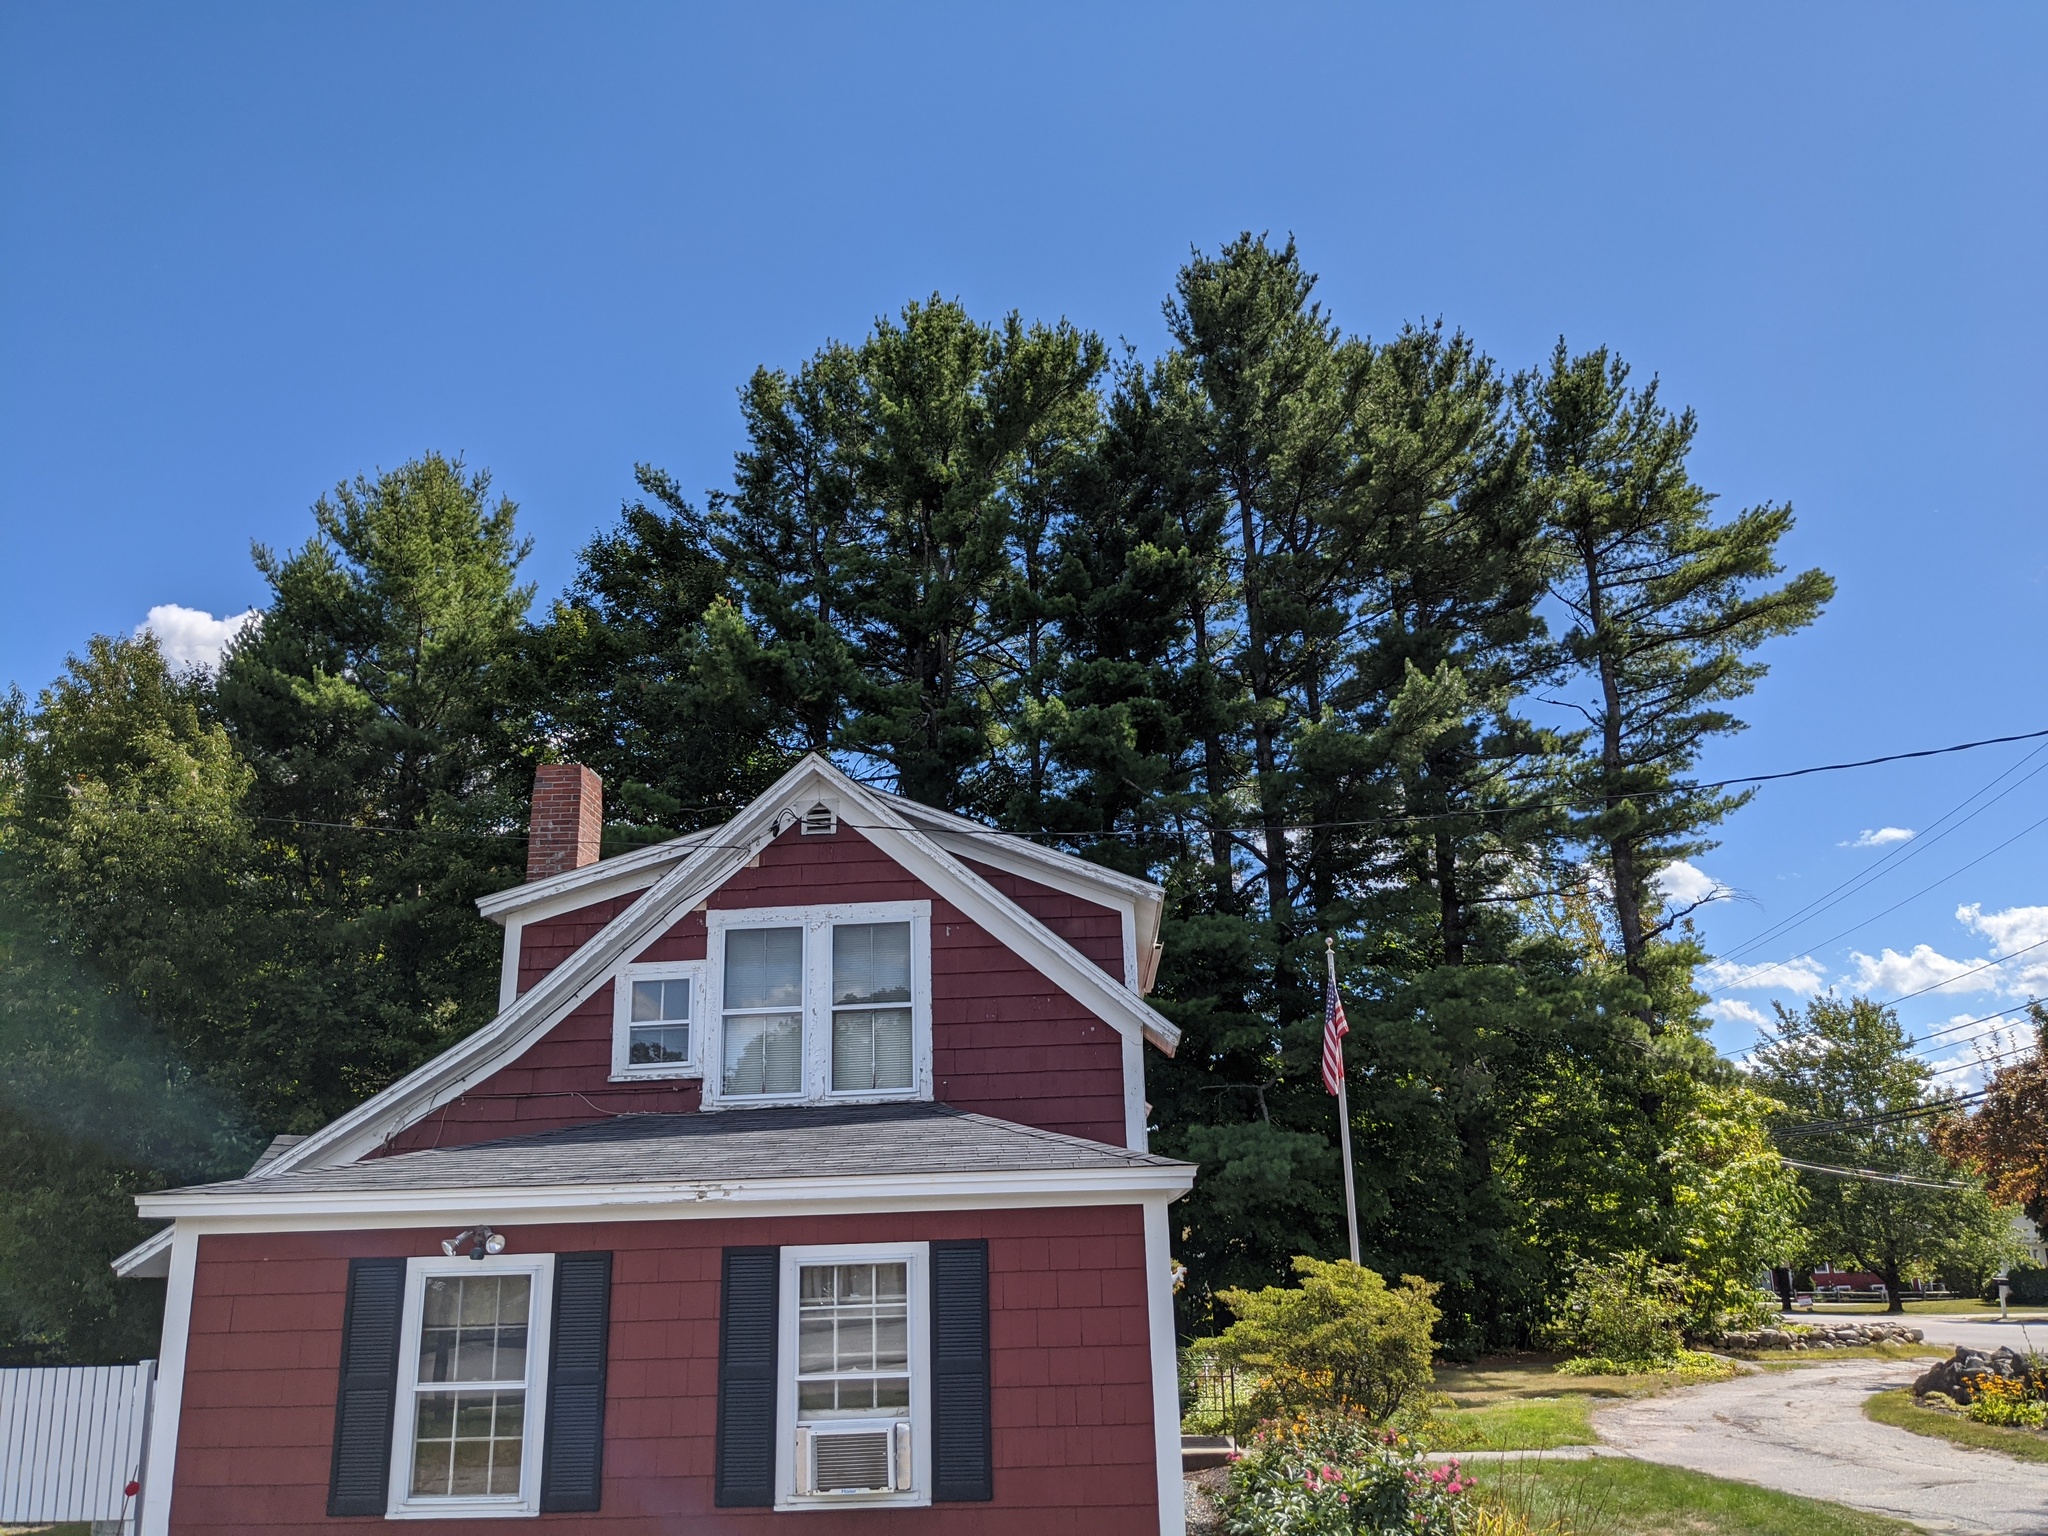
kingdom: Plantae
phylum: Tracheophyta
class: Pinopsida
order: Pinales
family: Pinaceae
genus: Pinus
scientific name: Pinus strobus
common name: Weymouth pine
